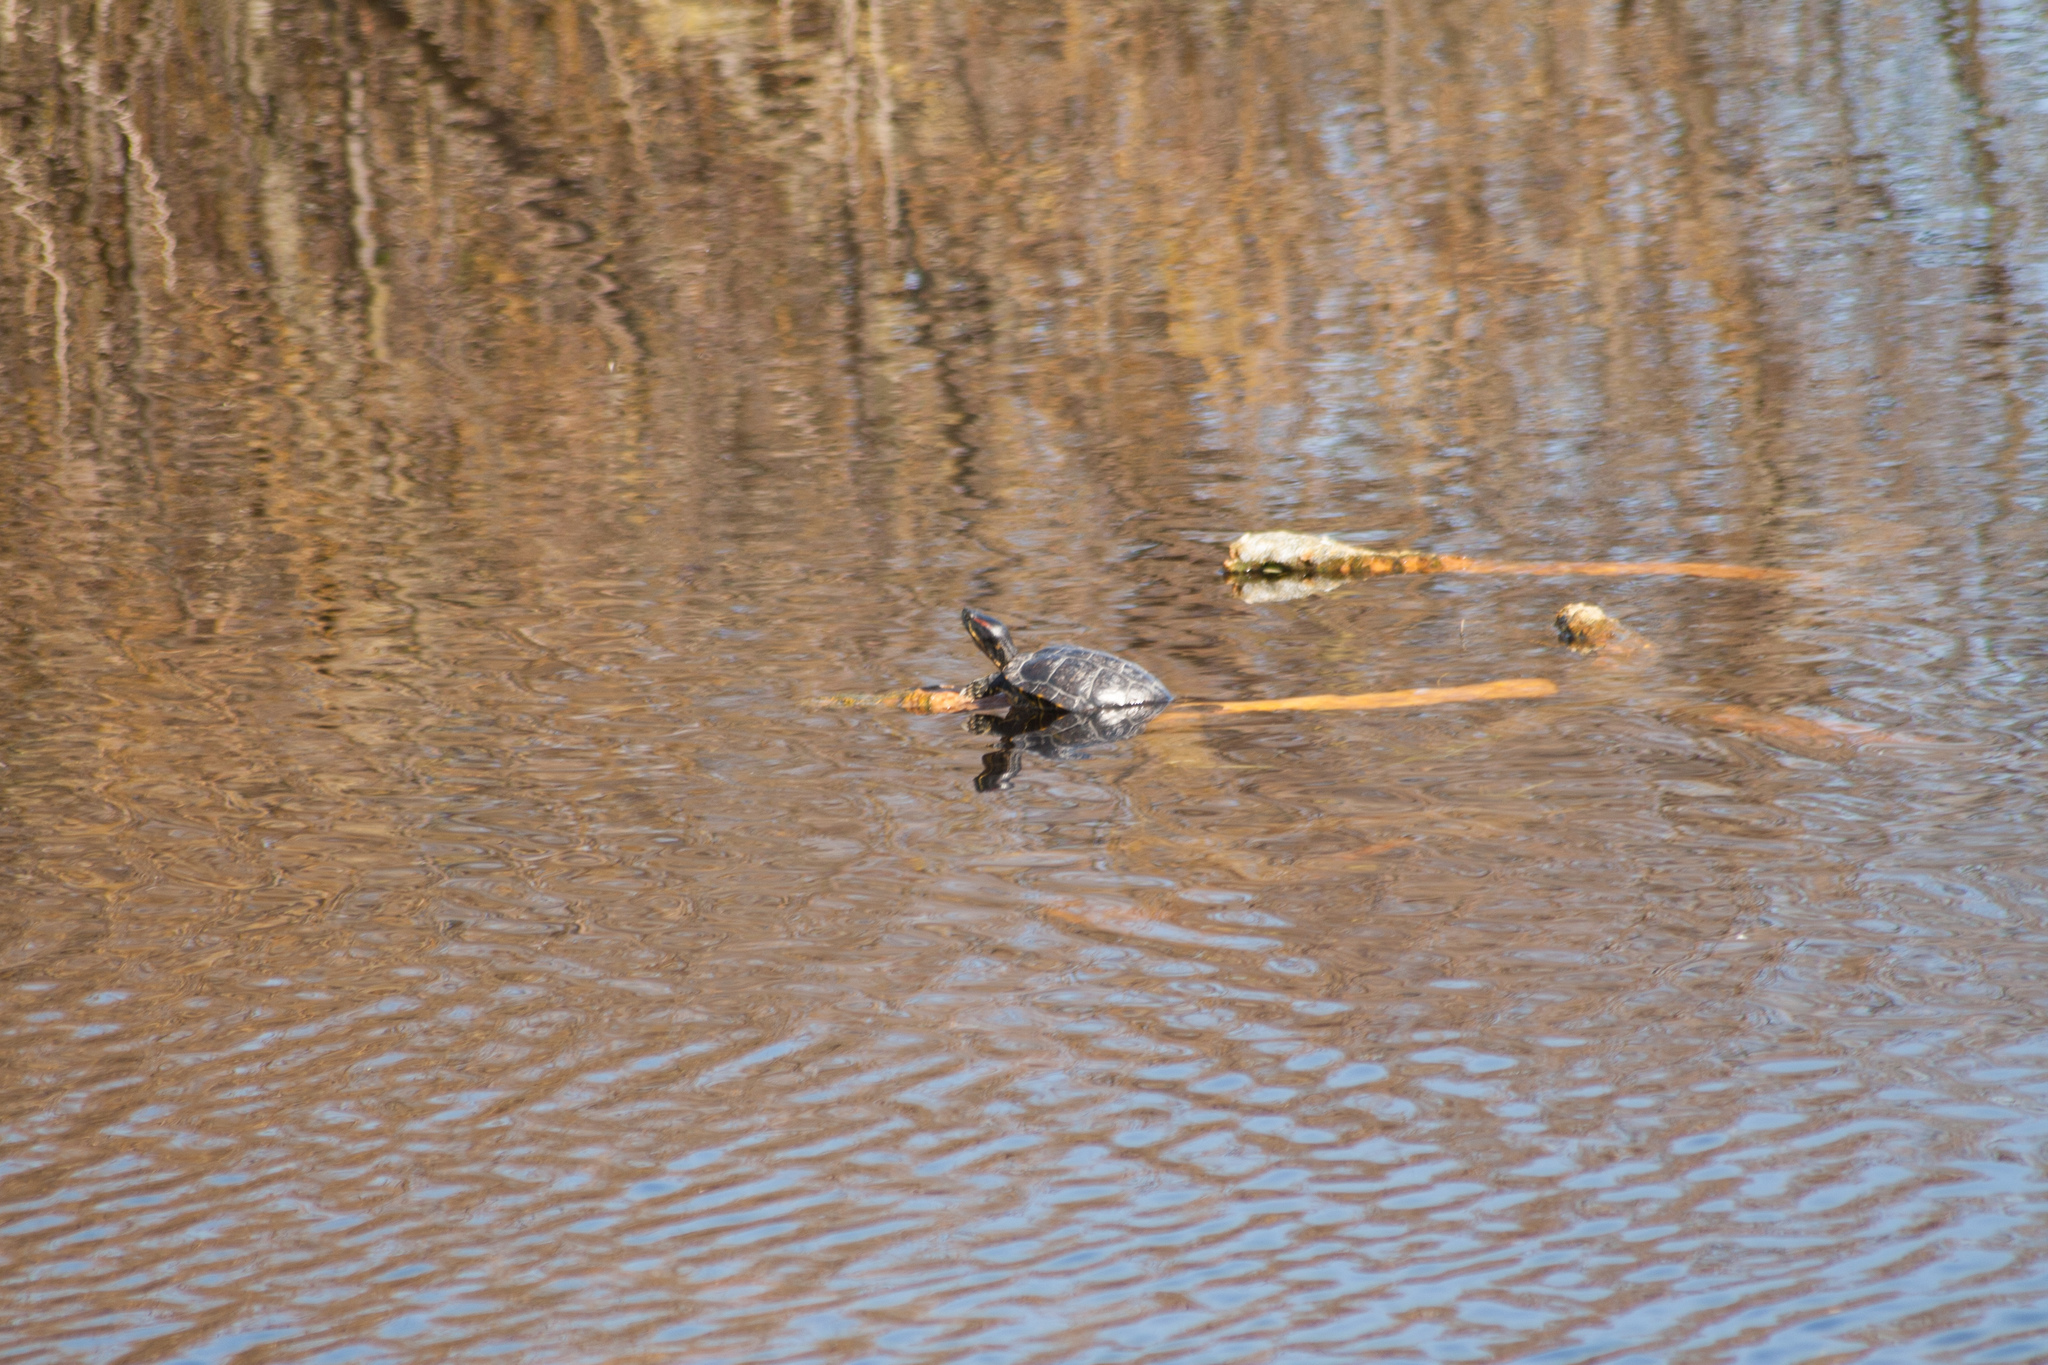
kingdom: Animalia
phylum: Chordata
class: Testudines
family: Emydidae
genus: Trachemys
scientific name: Trachemys scripta
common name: Slider
